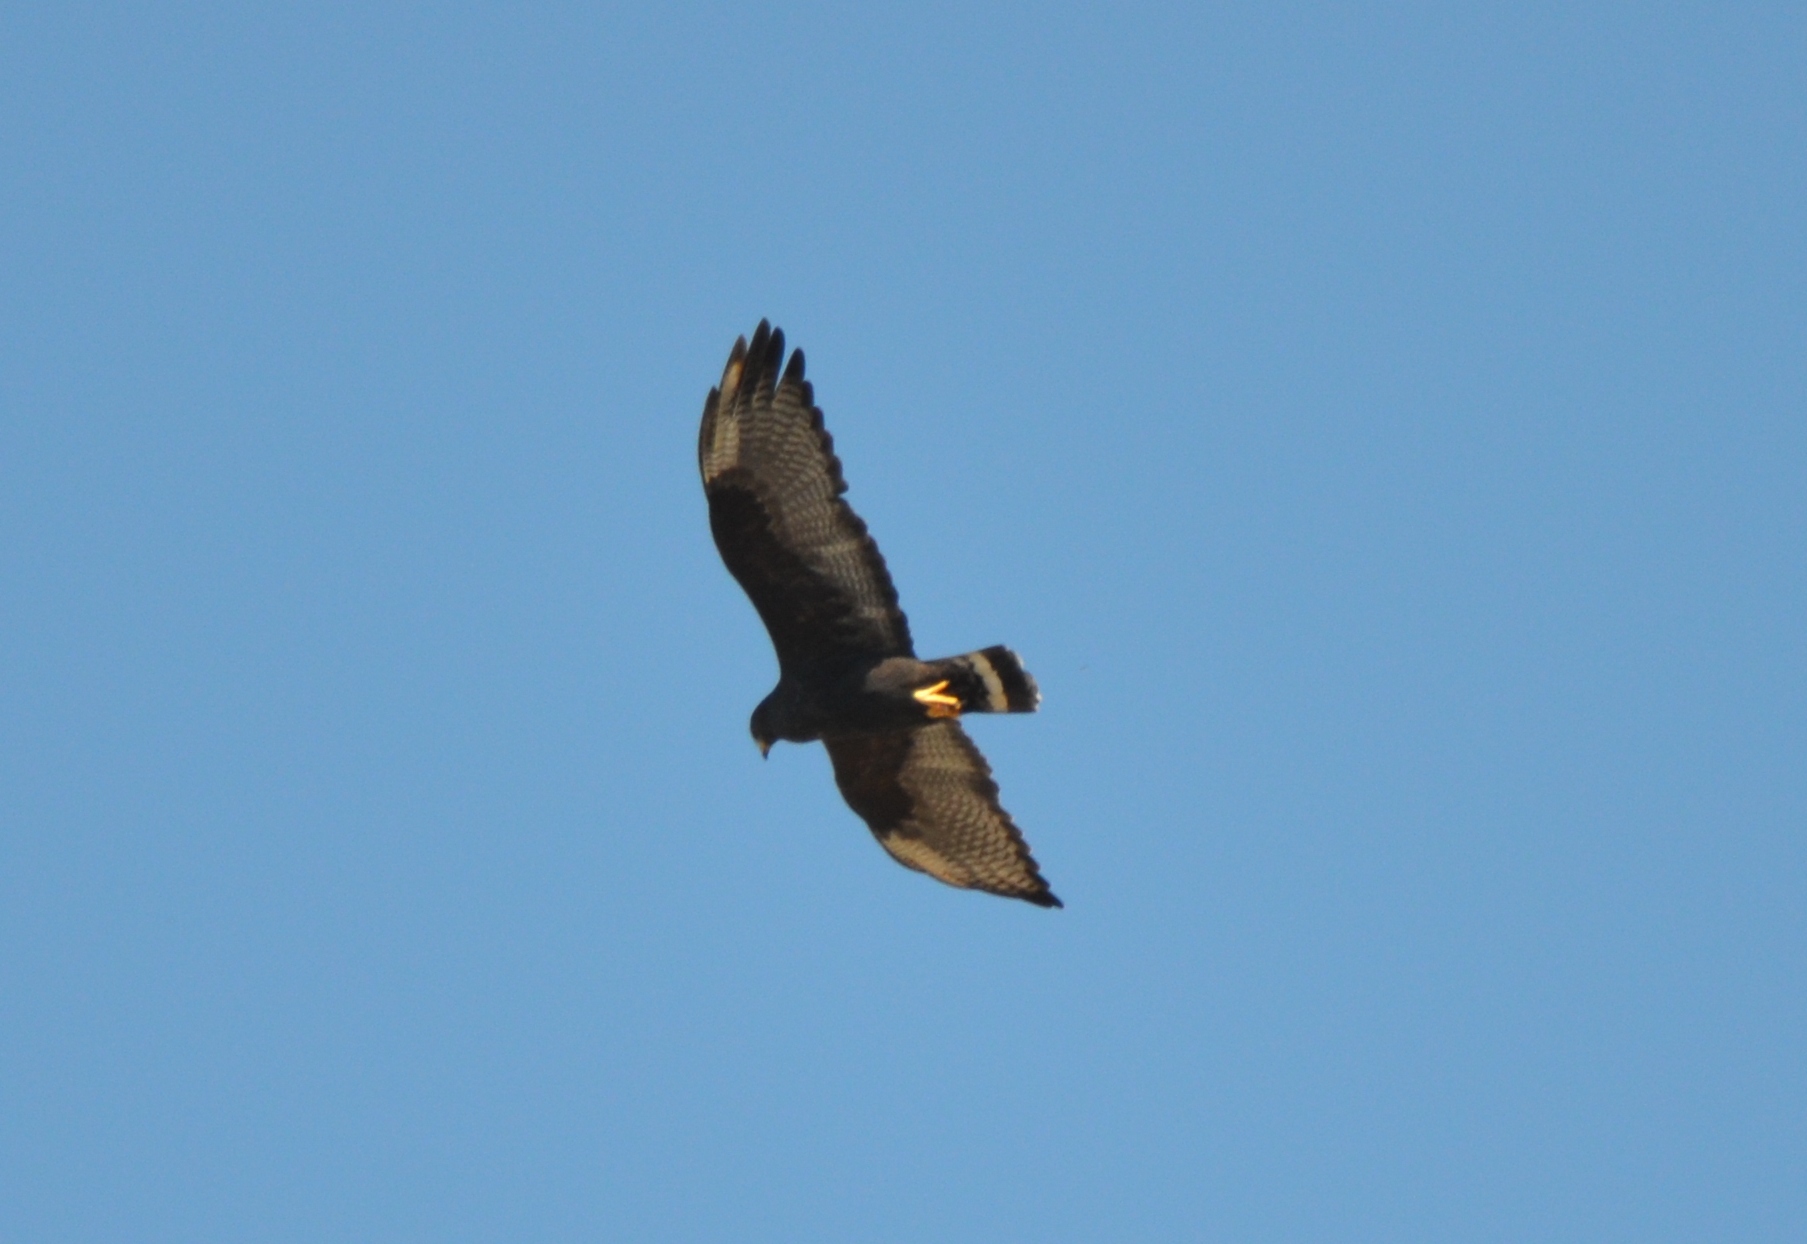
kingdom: Animalia
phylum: Chordata
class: Aves
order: Accipitriformes
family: Accipitridae
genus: Buteo
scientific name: Buteo albonotatus
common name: Zone-tailed hawk
